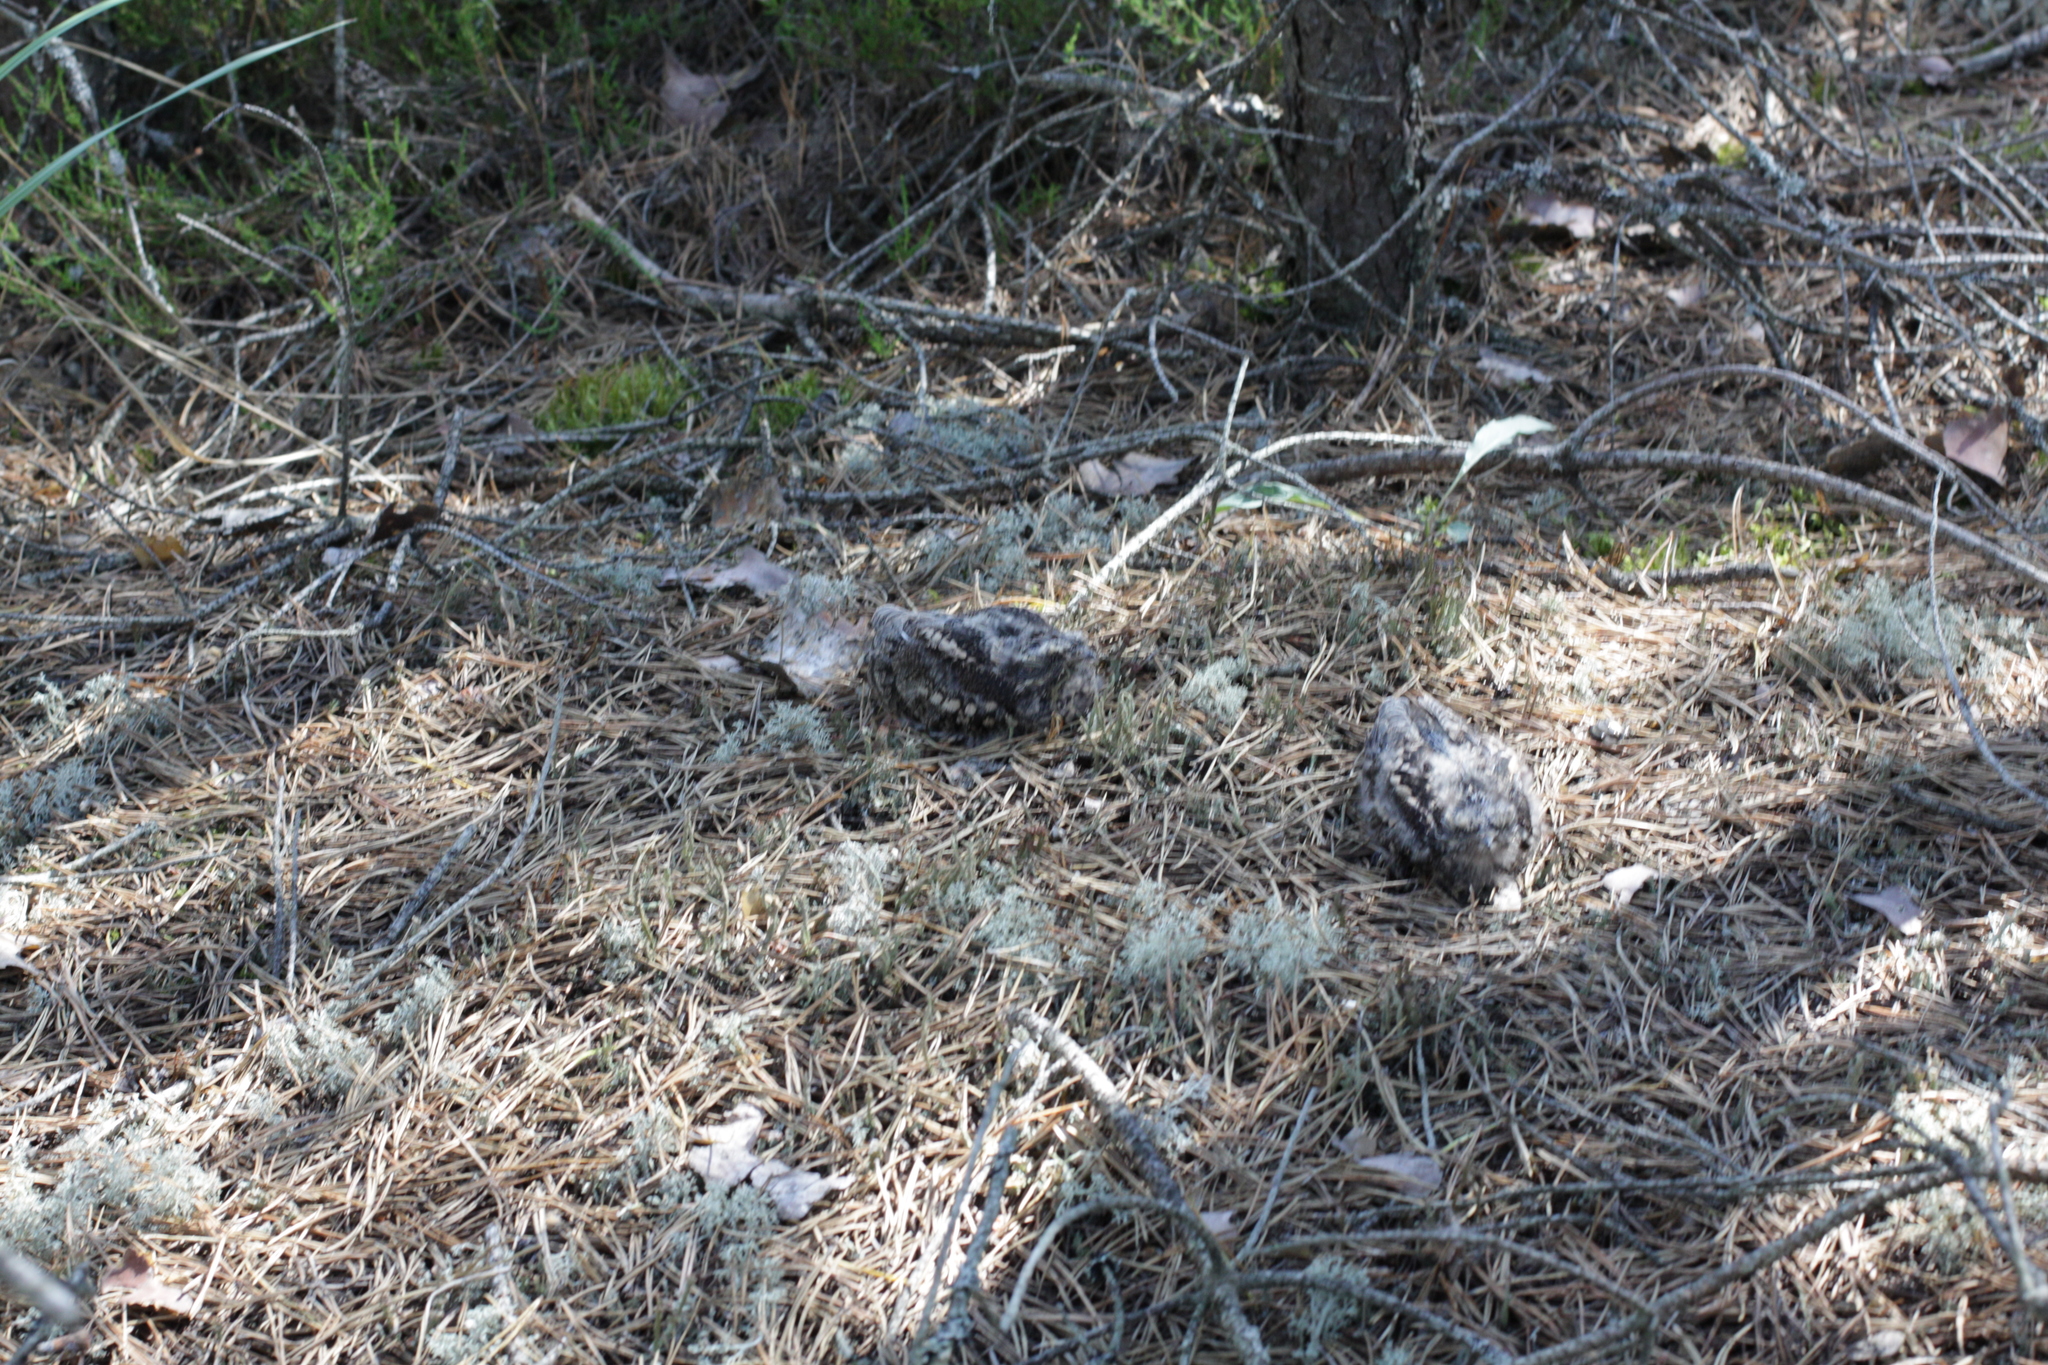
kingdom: Animalia
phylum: Chordata
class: Aves
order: Caprimulgiformes
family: Caprimulgidae
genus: Caprimulgus
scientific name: Caprimulgus europaeus
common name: European nightjar
